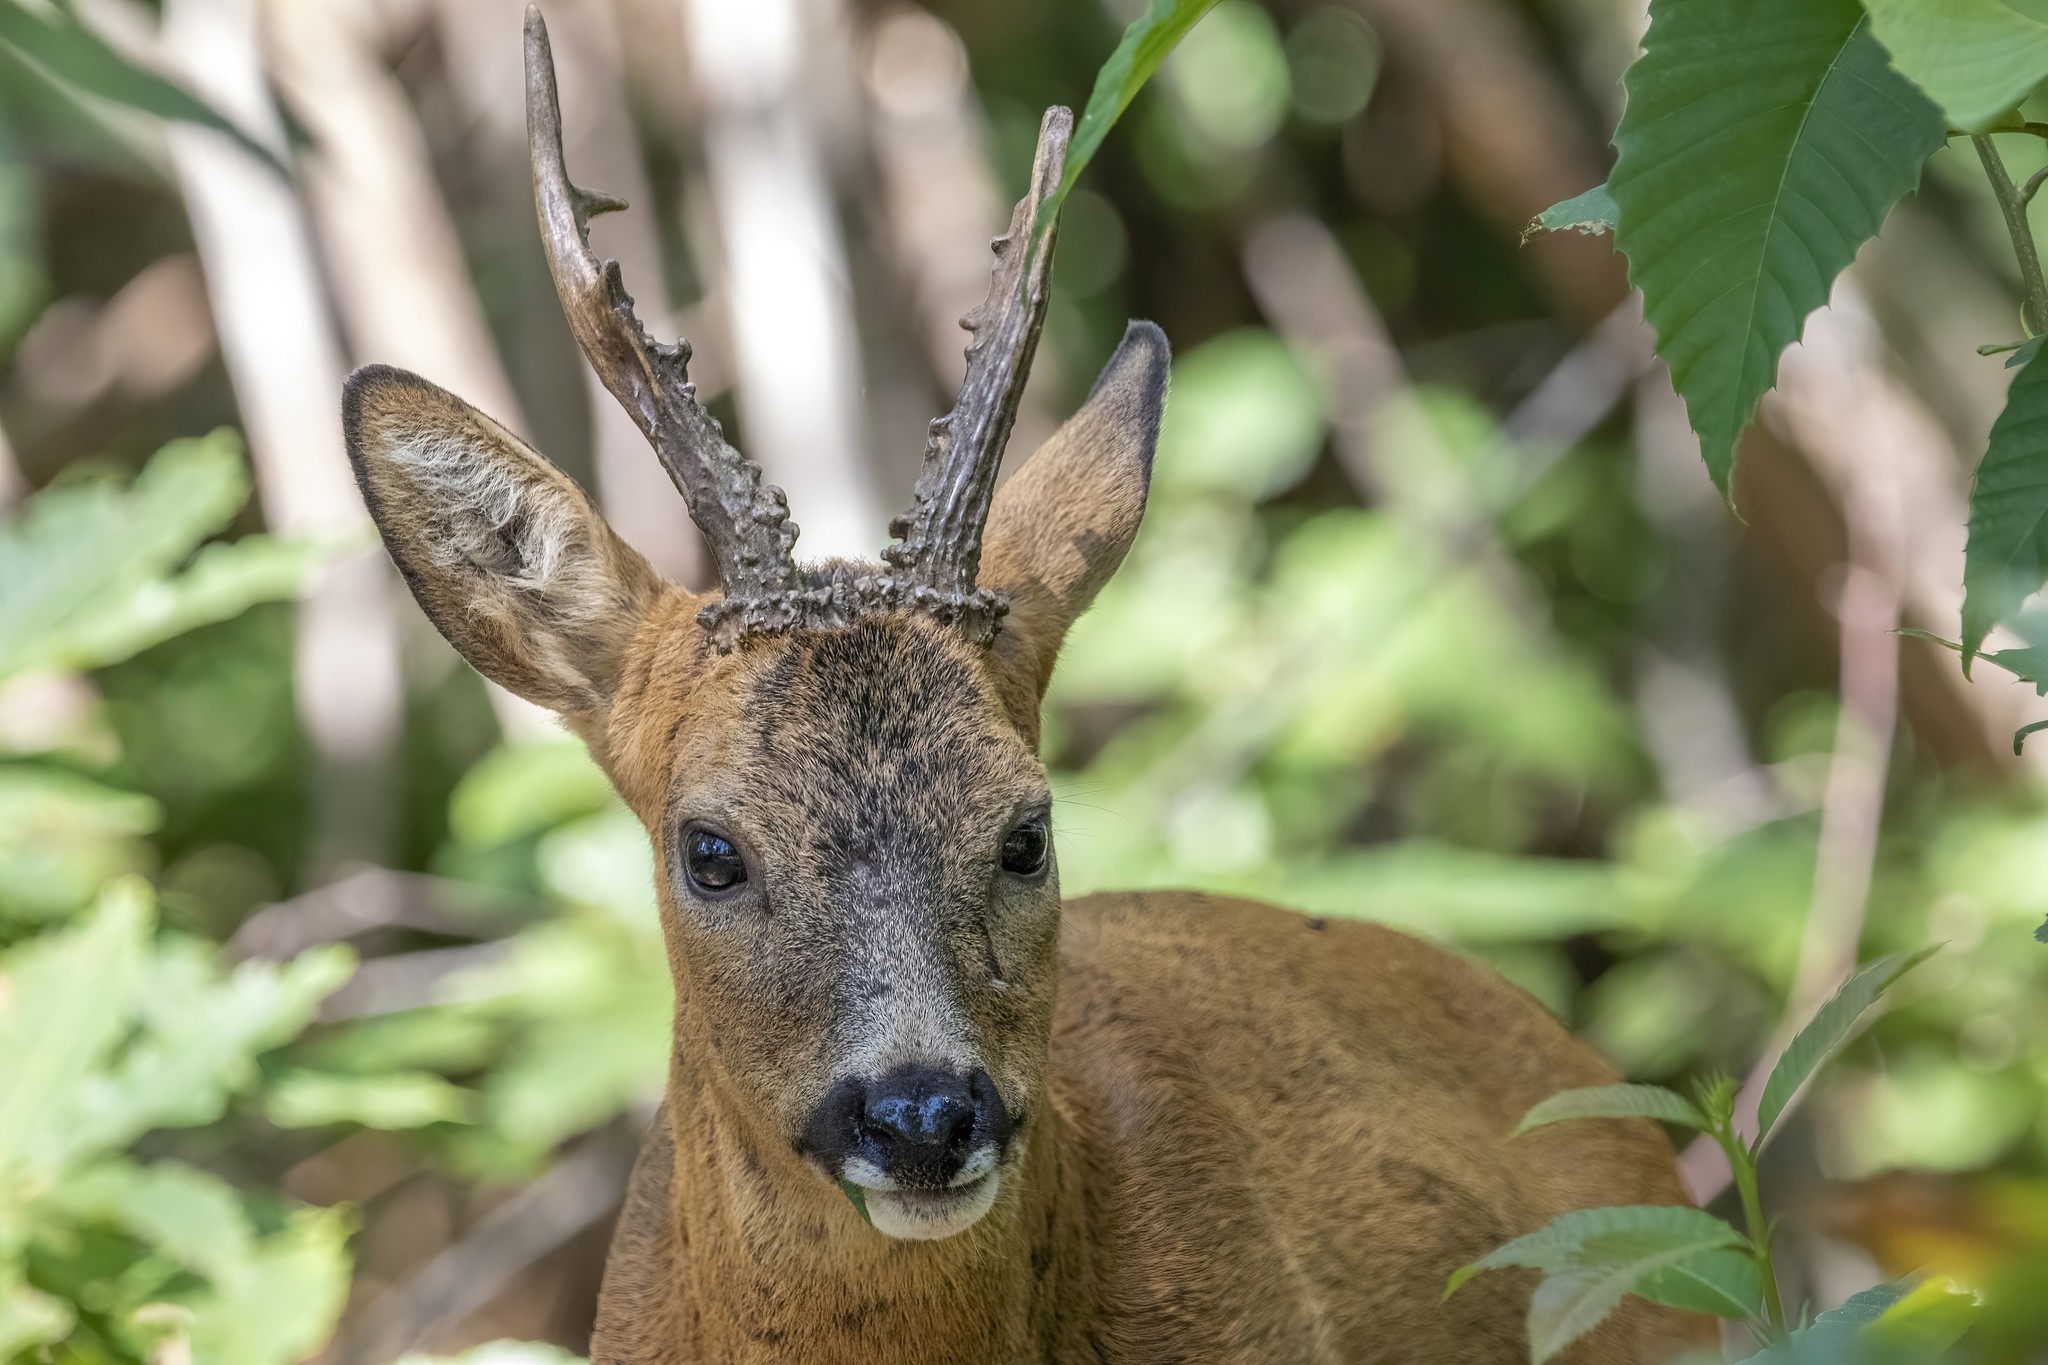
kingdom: Animalia
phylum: Chordata
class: Mammalia
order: Artiodactyla
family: Cervidae
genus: Capreolus
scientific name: Capreolus capreolus
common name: Western roe deer
